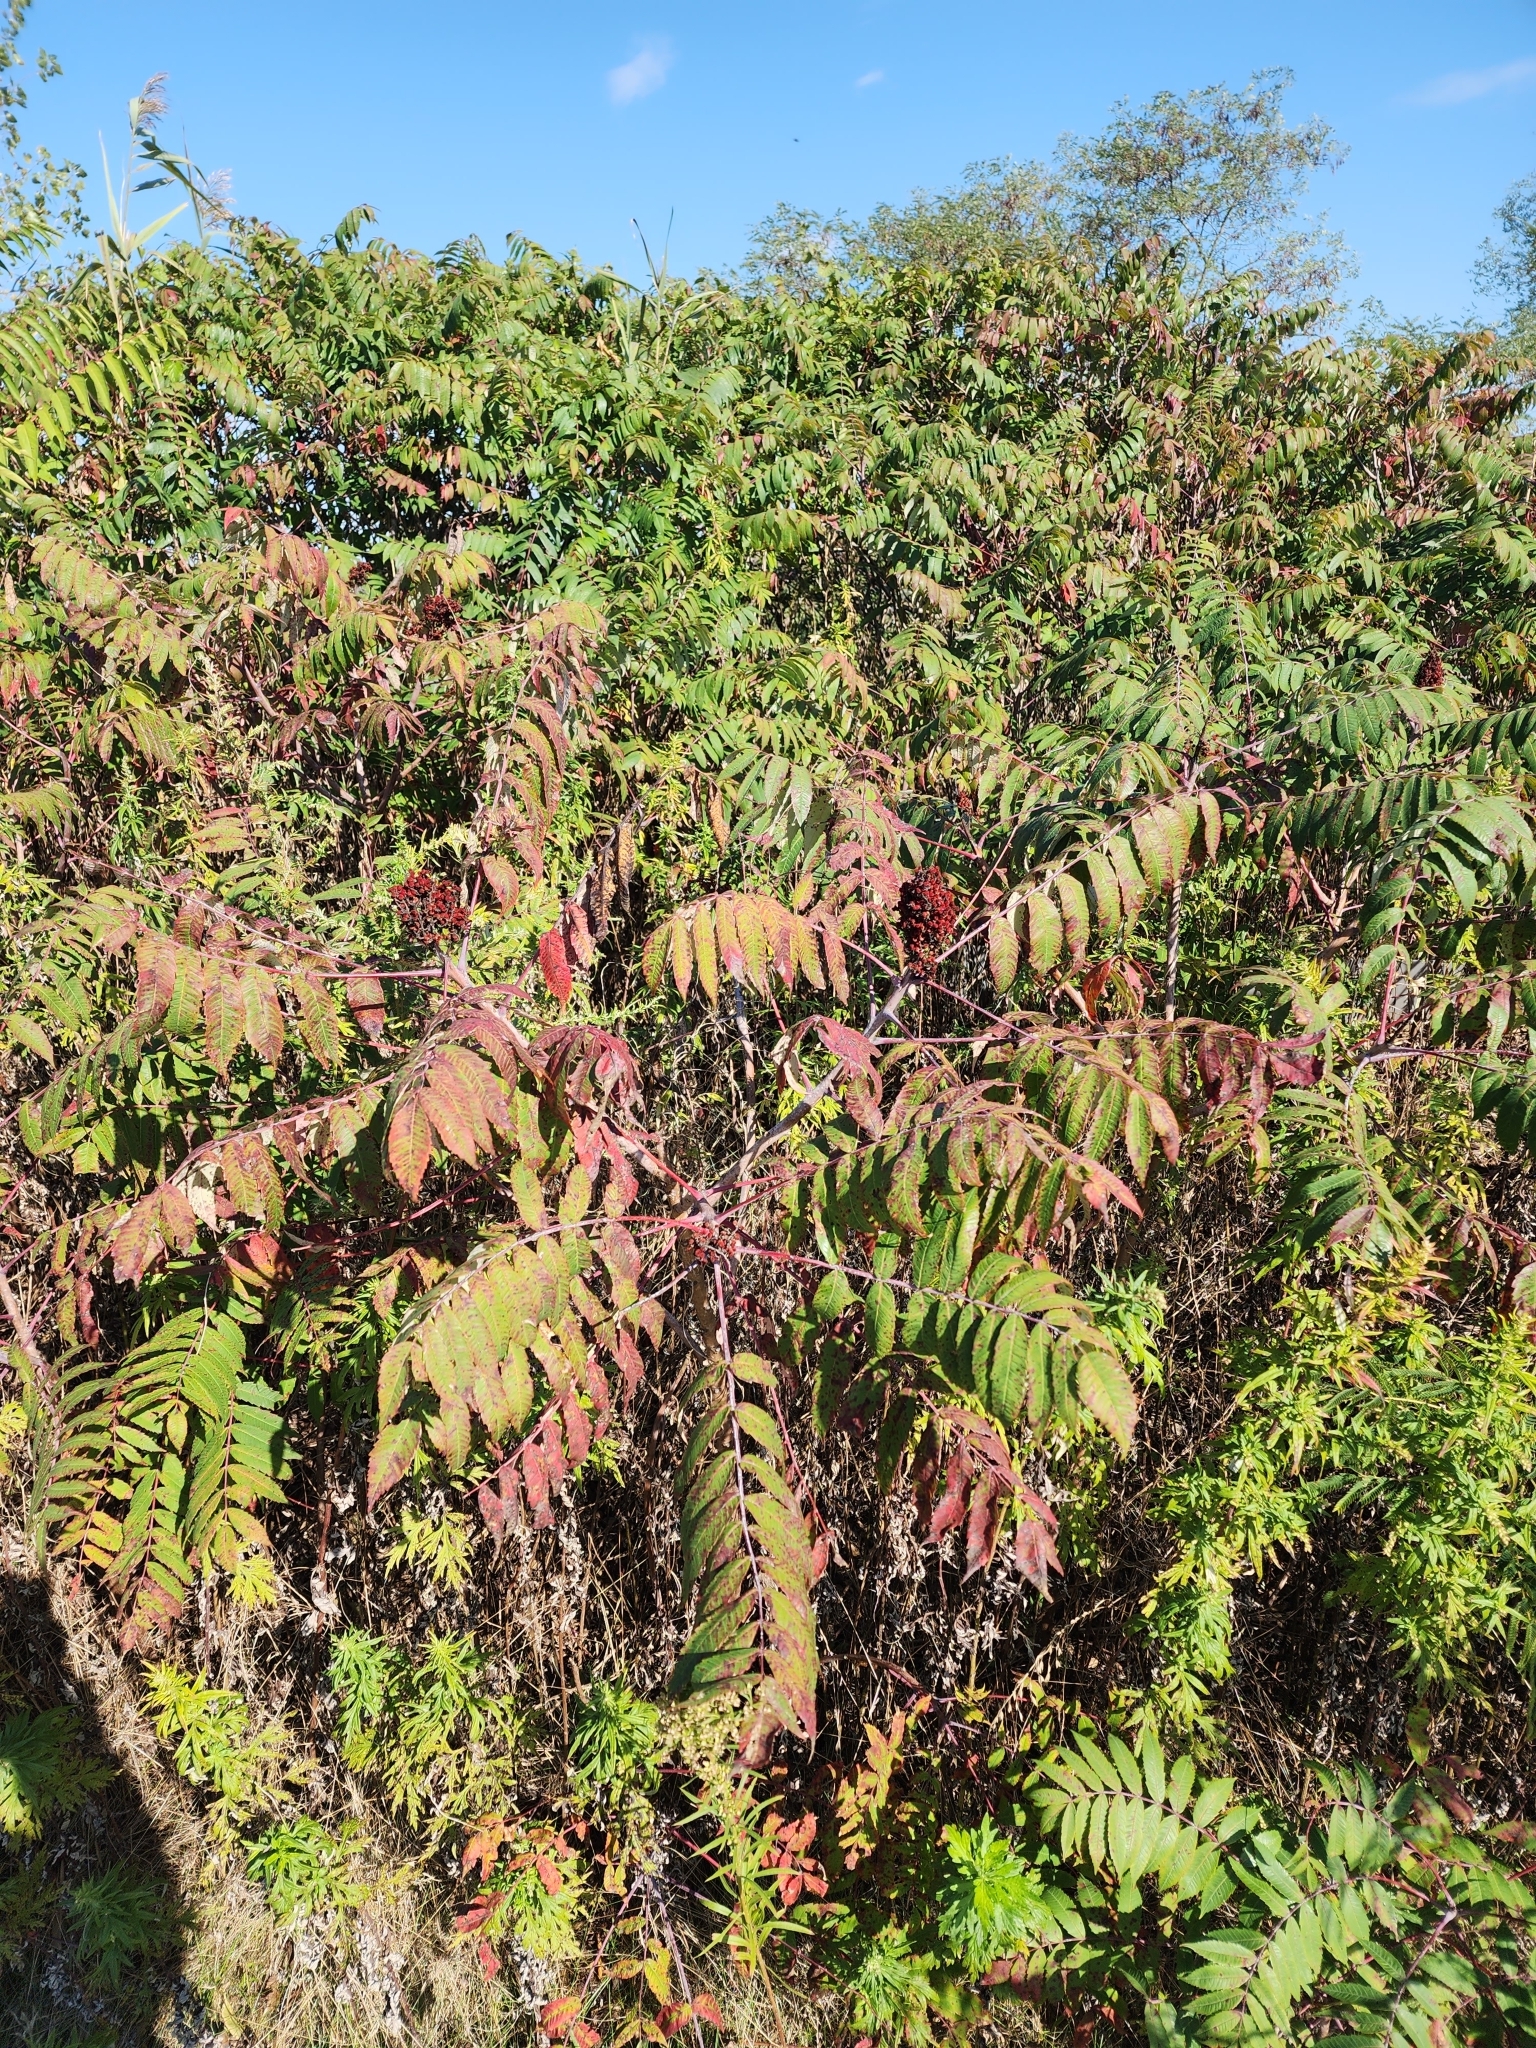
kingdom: Plantae
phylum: Tracheophyta
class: Magnoliopsida
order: Sapindales
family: Anacardiaceae
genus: Rhus
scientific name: Rhus glabra
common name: Scarlet sumac
